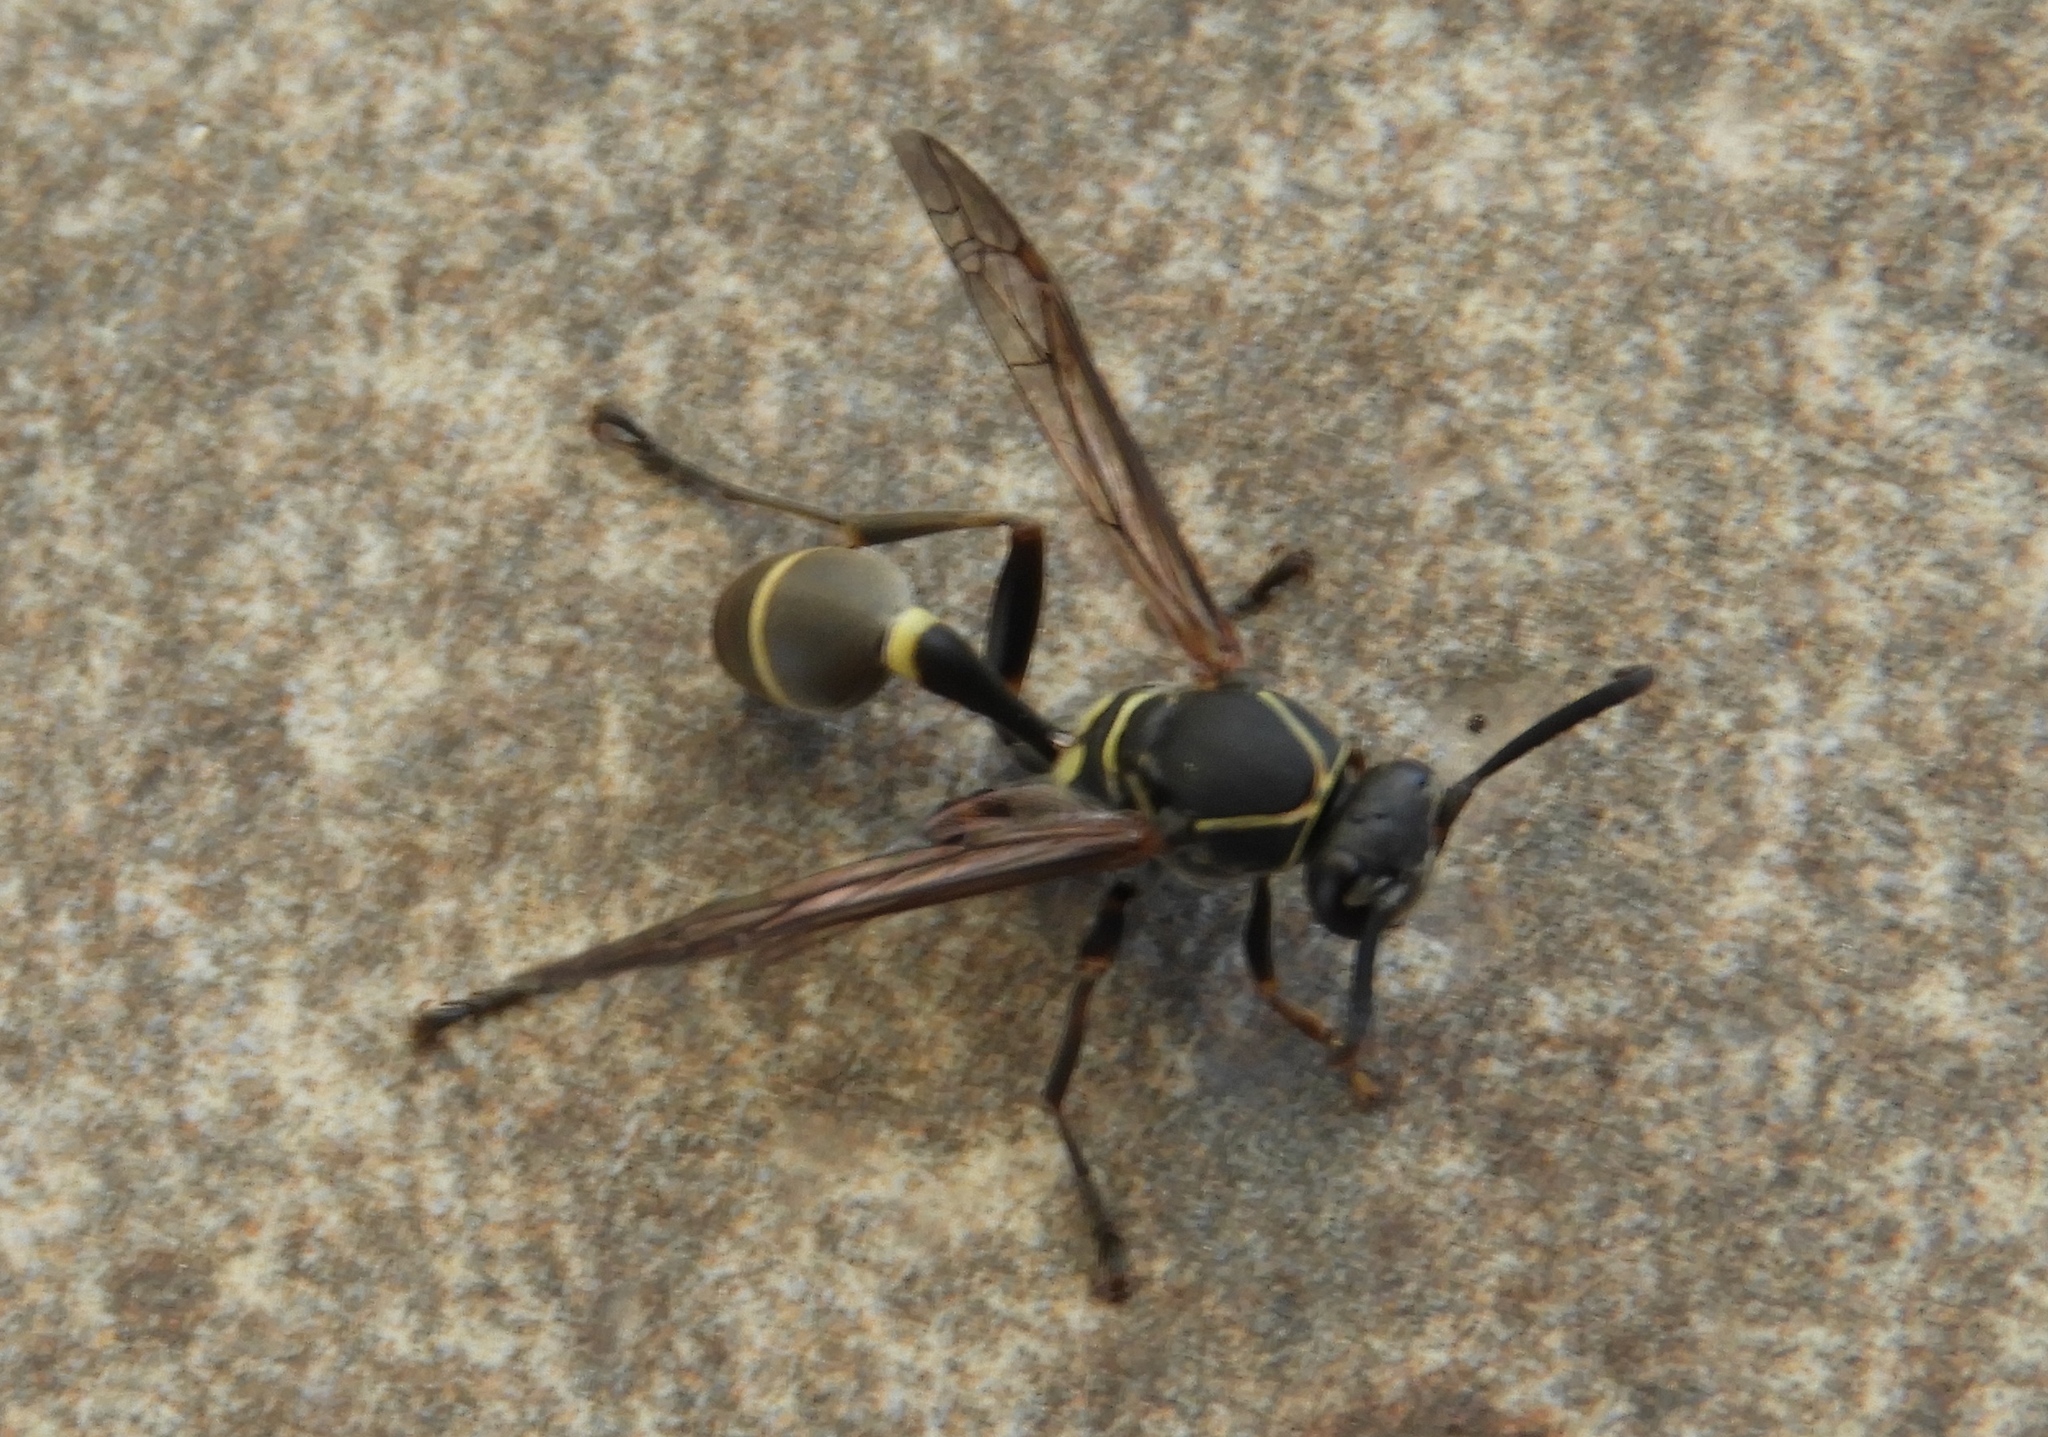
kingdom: Animalia
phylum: Arthropoda
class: Insecta
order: Hymenoptera
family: Vespidae
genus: Mischocyttarus
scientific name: Mischocyttarus pallidipectus
